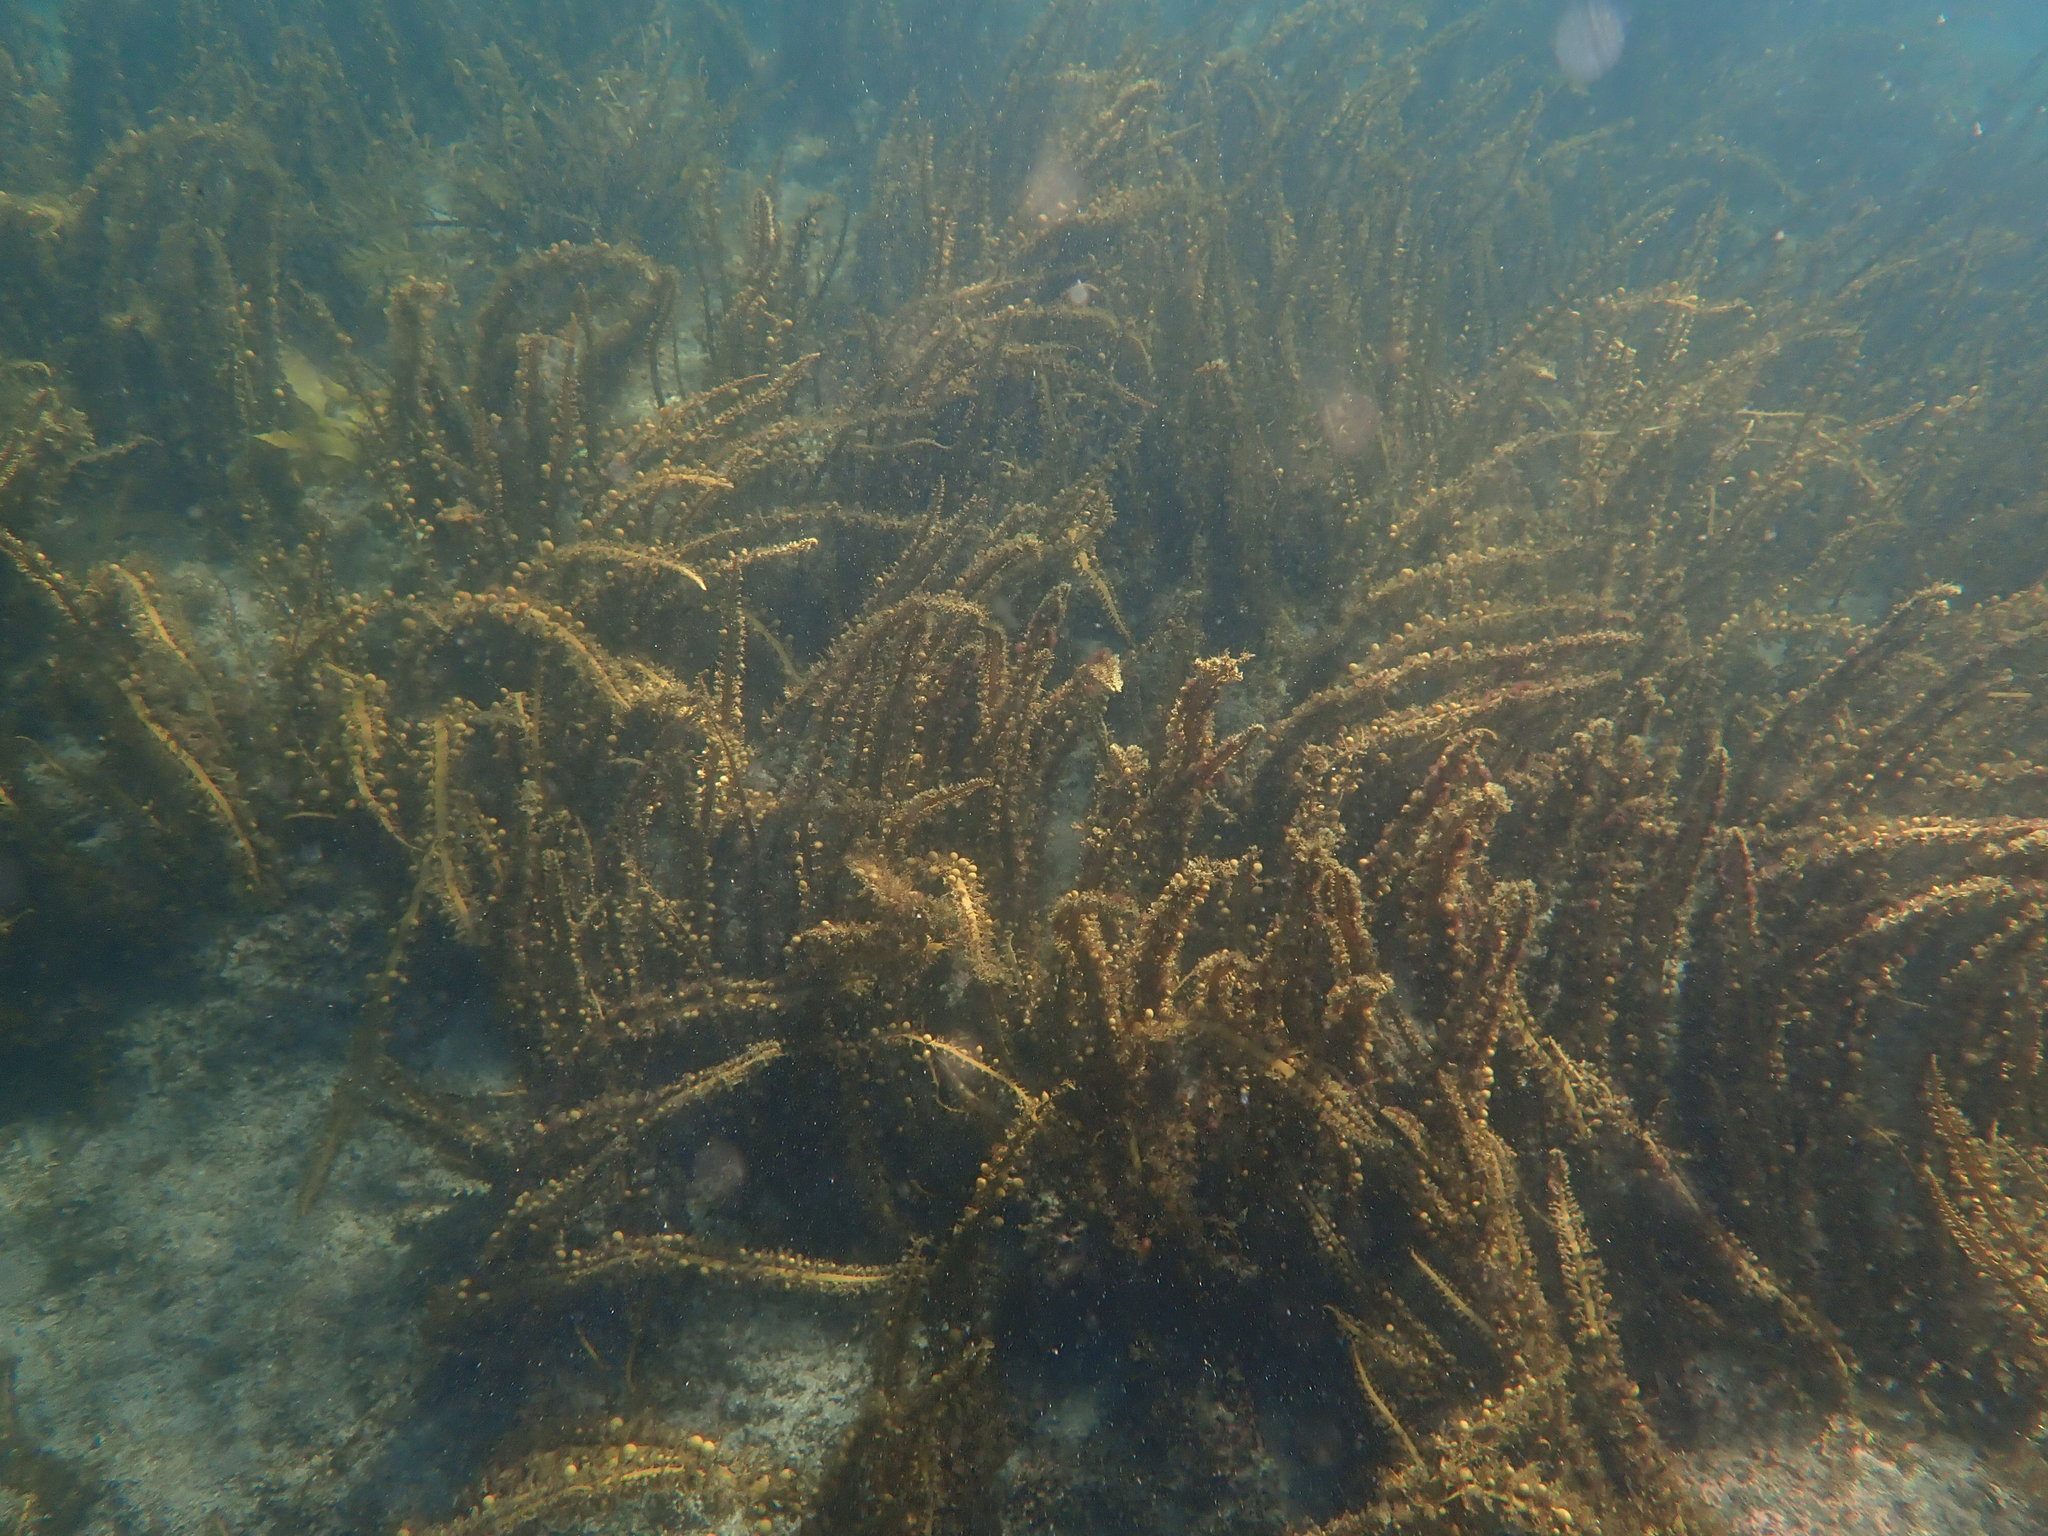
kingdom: Chromista
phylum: Ochrophyta
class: Phaeophyceae
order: Fucales
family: Sargassaceae
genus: Carpophyllum
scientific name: Carpophyllum plumosum
